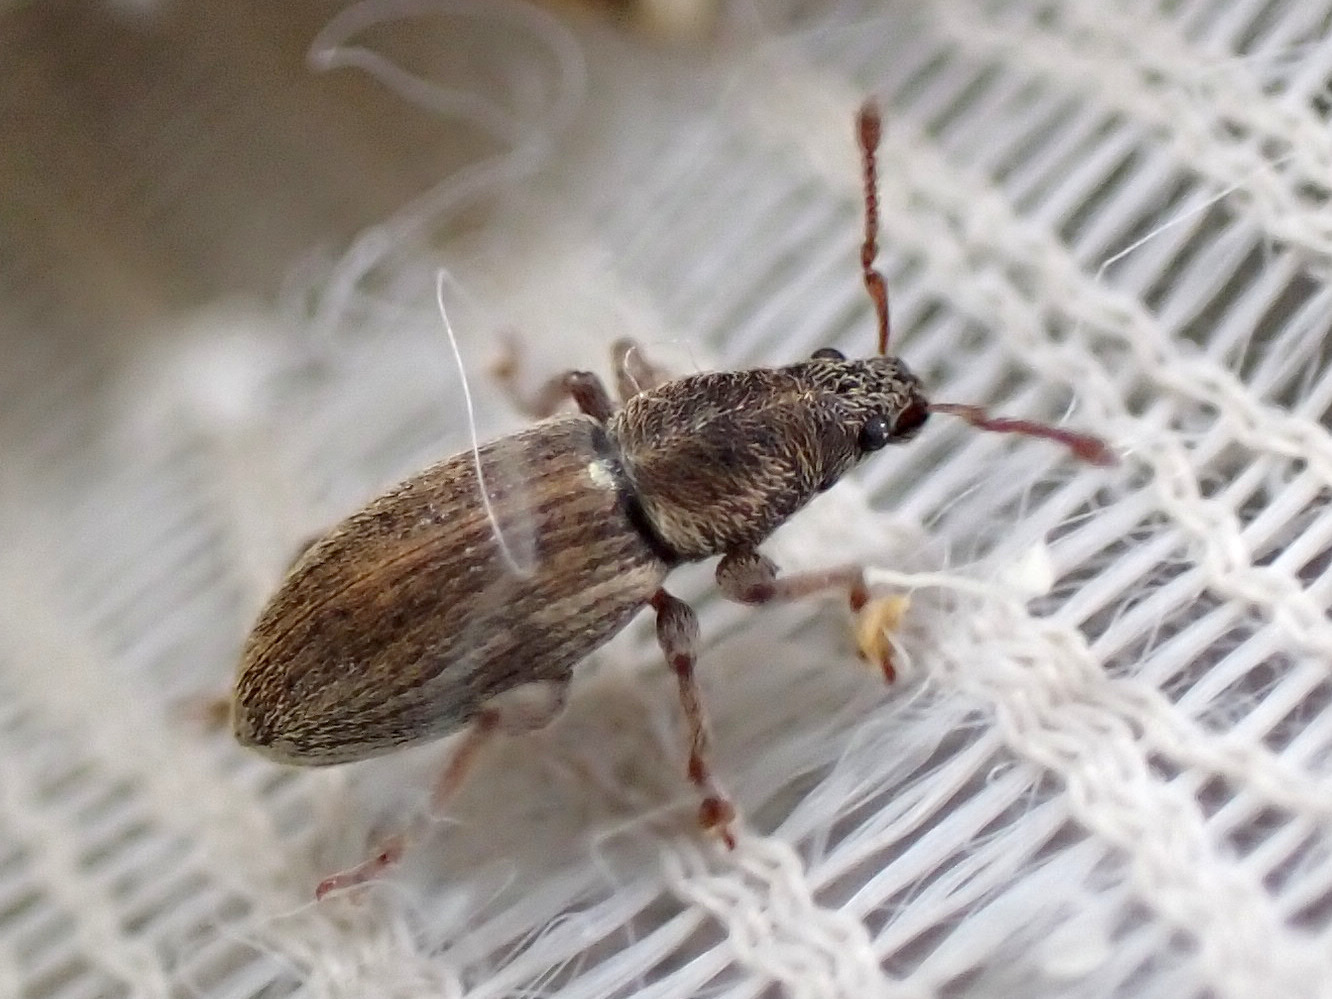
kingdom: Animalia
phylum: Arthropoda
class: Insecta
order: Coleoptera
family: Curculionidae
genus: Polydrusus
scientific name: Polydrusus marginatus
